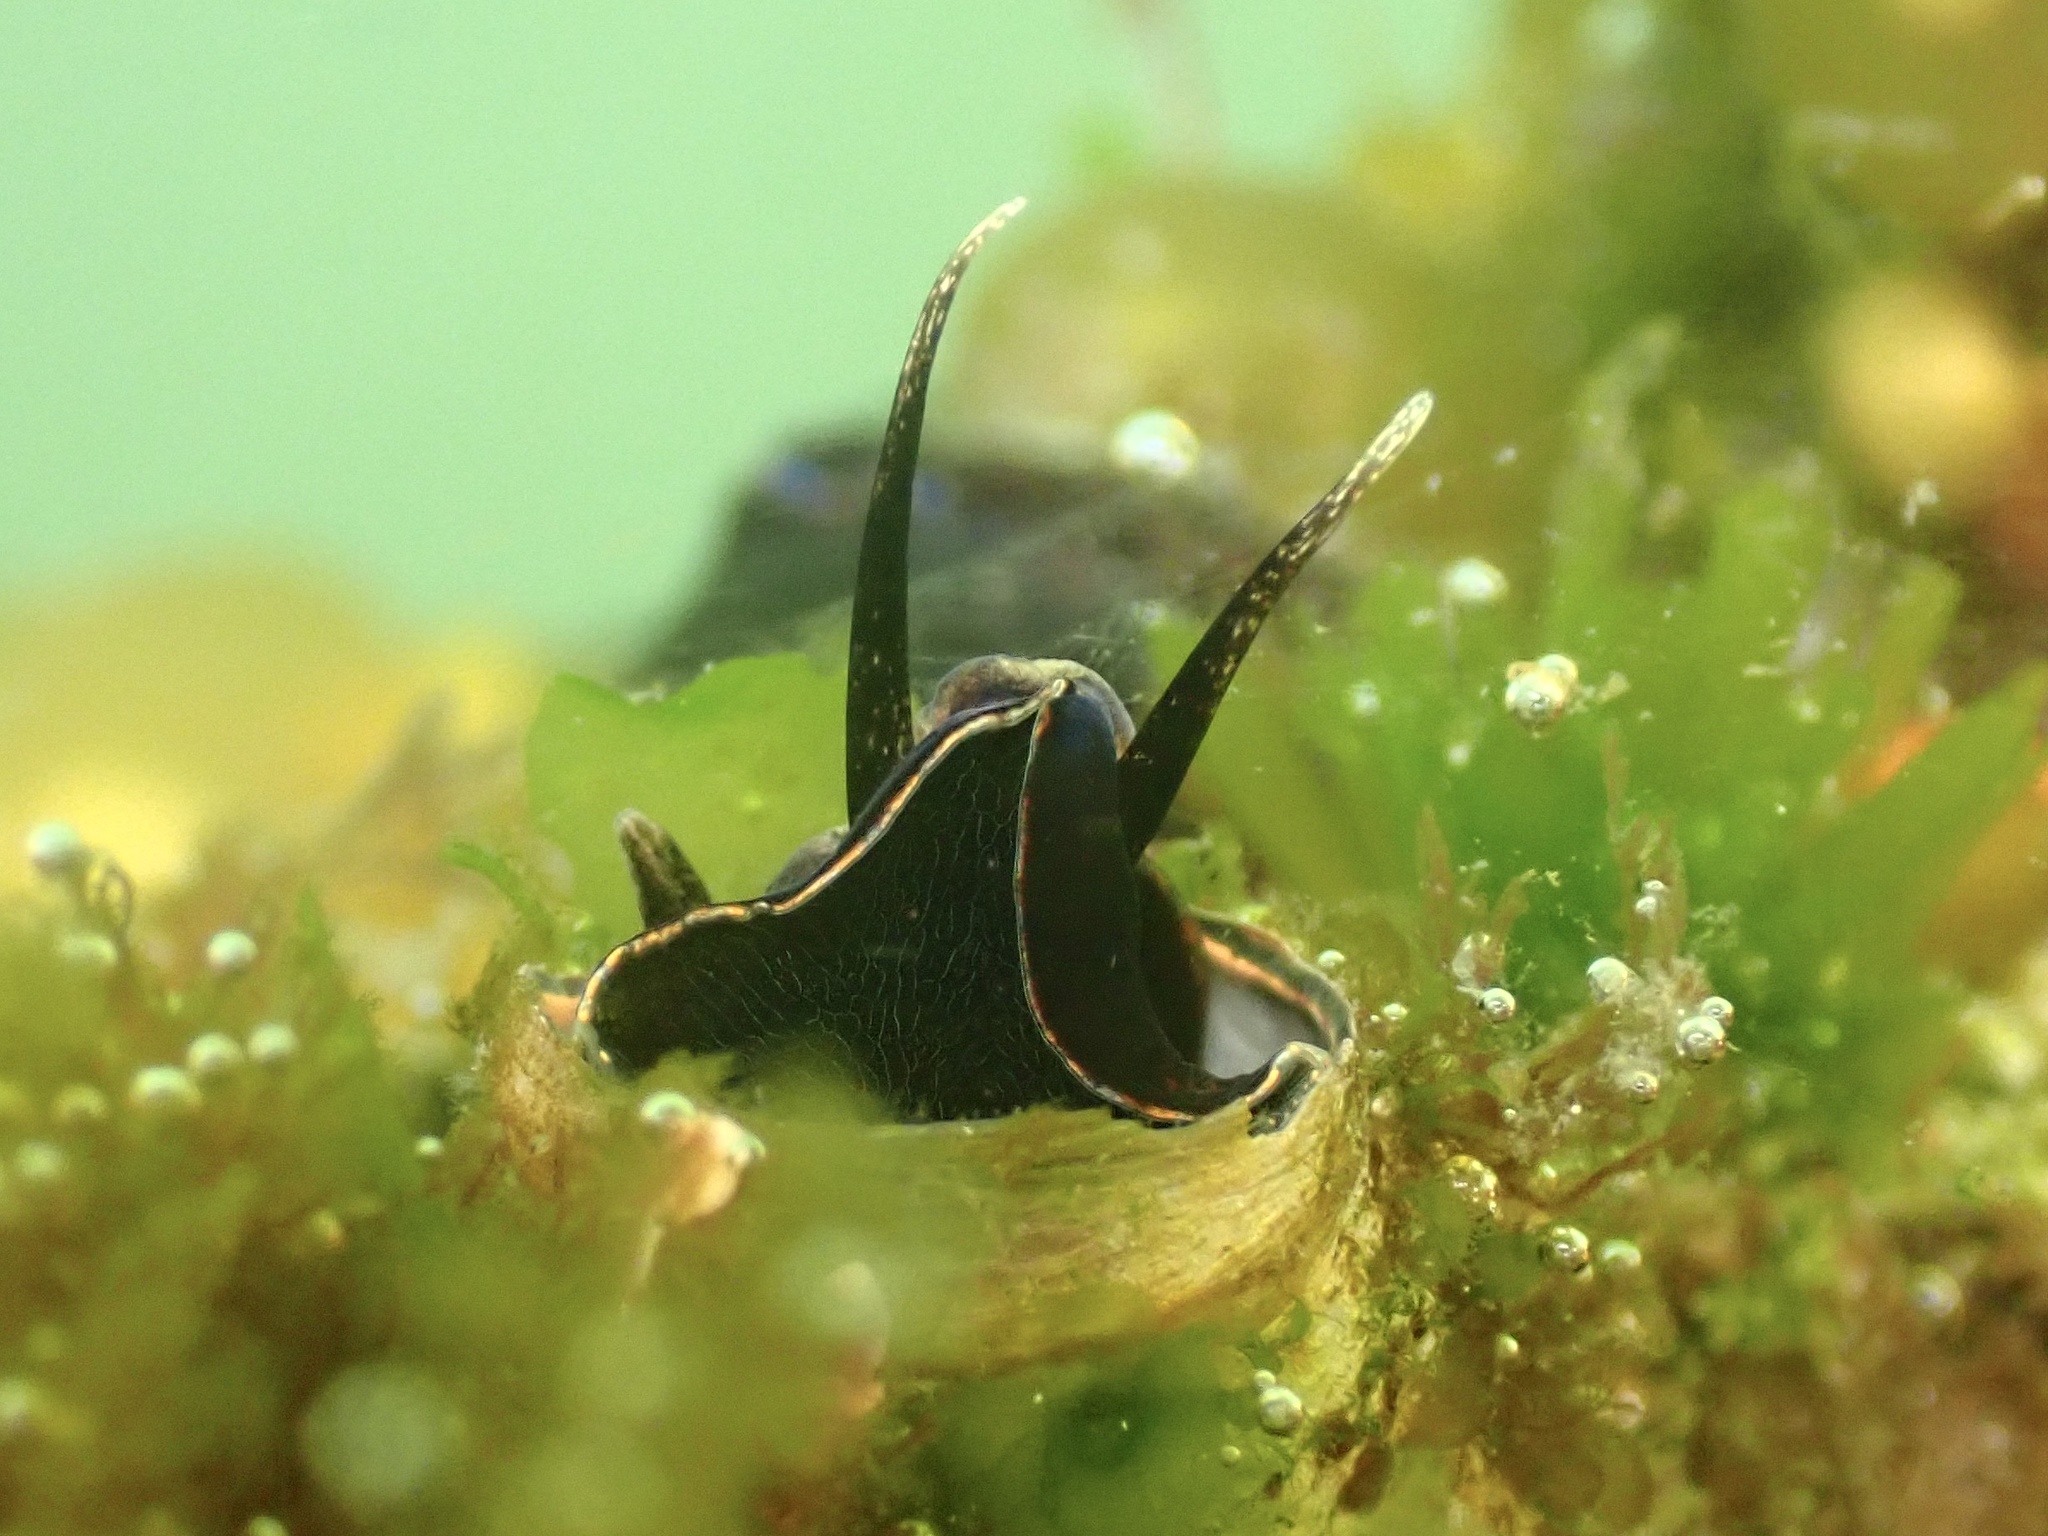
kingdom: Animalia
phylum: Mollusca
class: Gastropoda
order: Littorinimorpha
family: Vermetidae
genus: Thylacodes
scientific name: Thylacodes squamigerus
